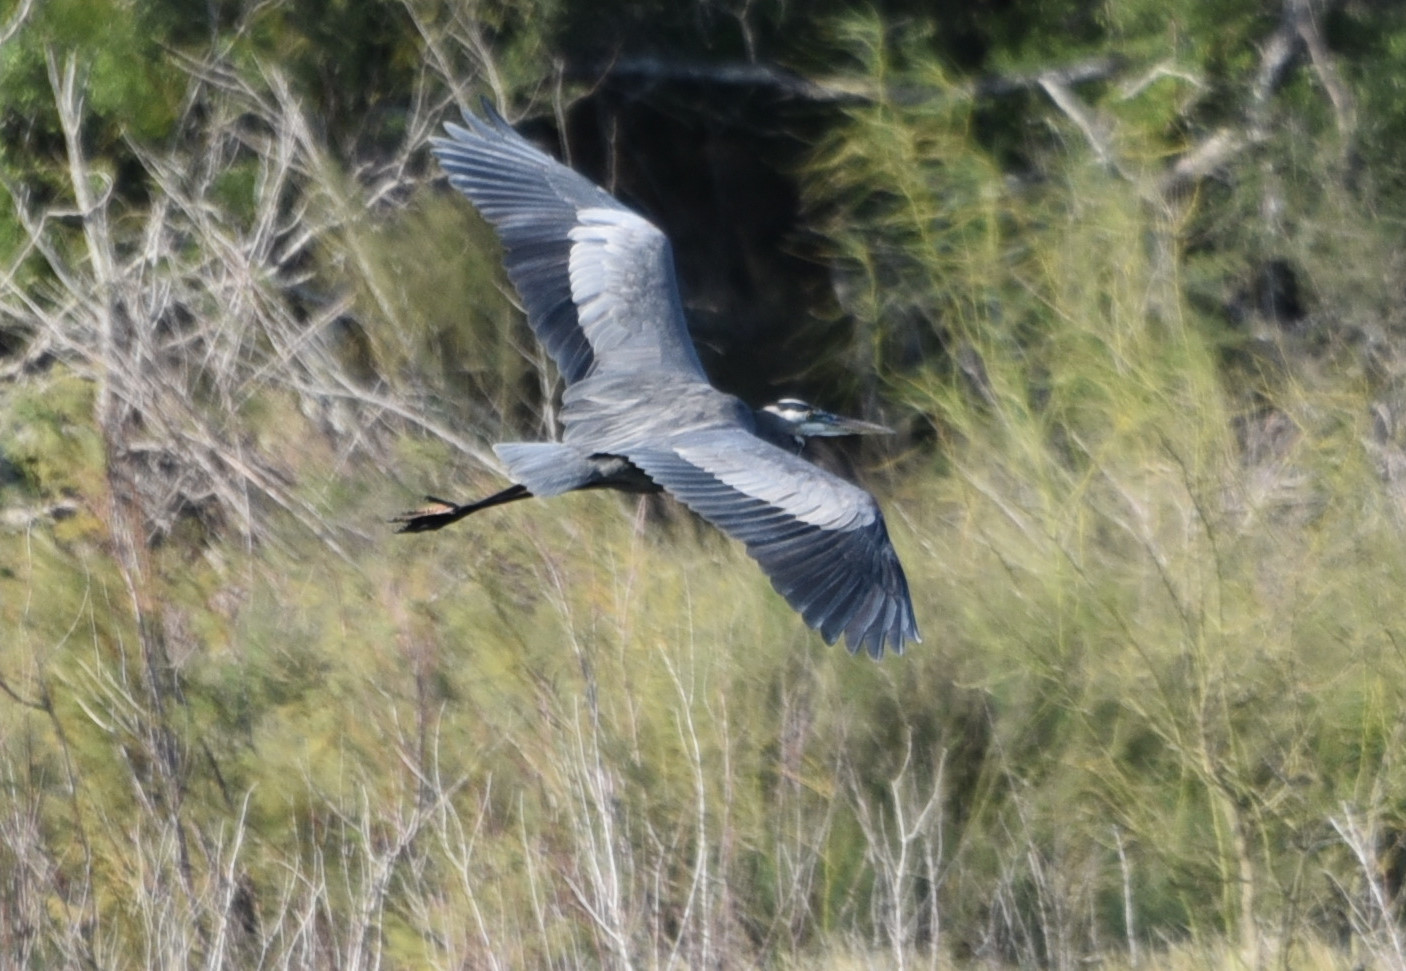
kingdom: Animalia
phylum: Chordata
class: Aves
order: Pelecaniformes
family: Ardeidae
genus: Ardea
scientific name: Ardea herodias
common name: Great blue heron
